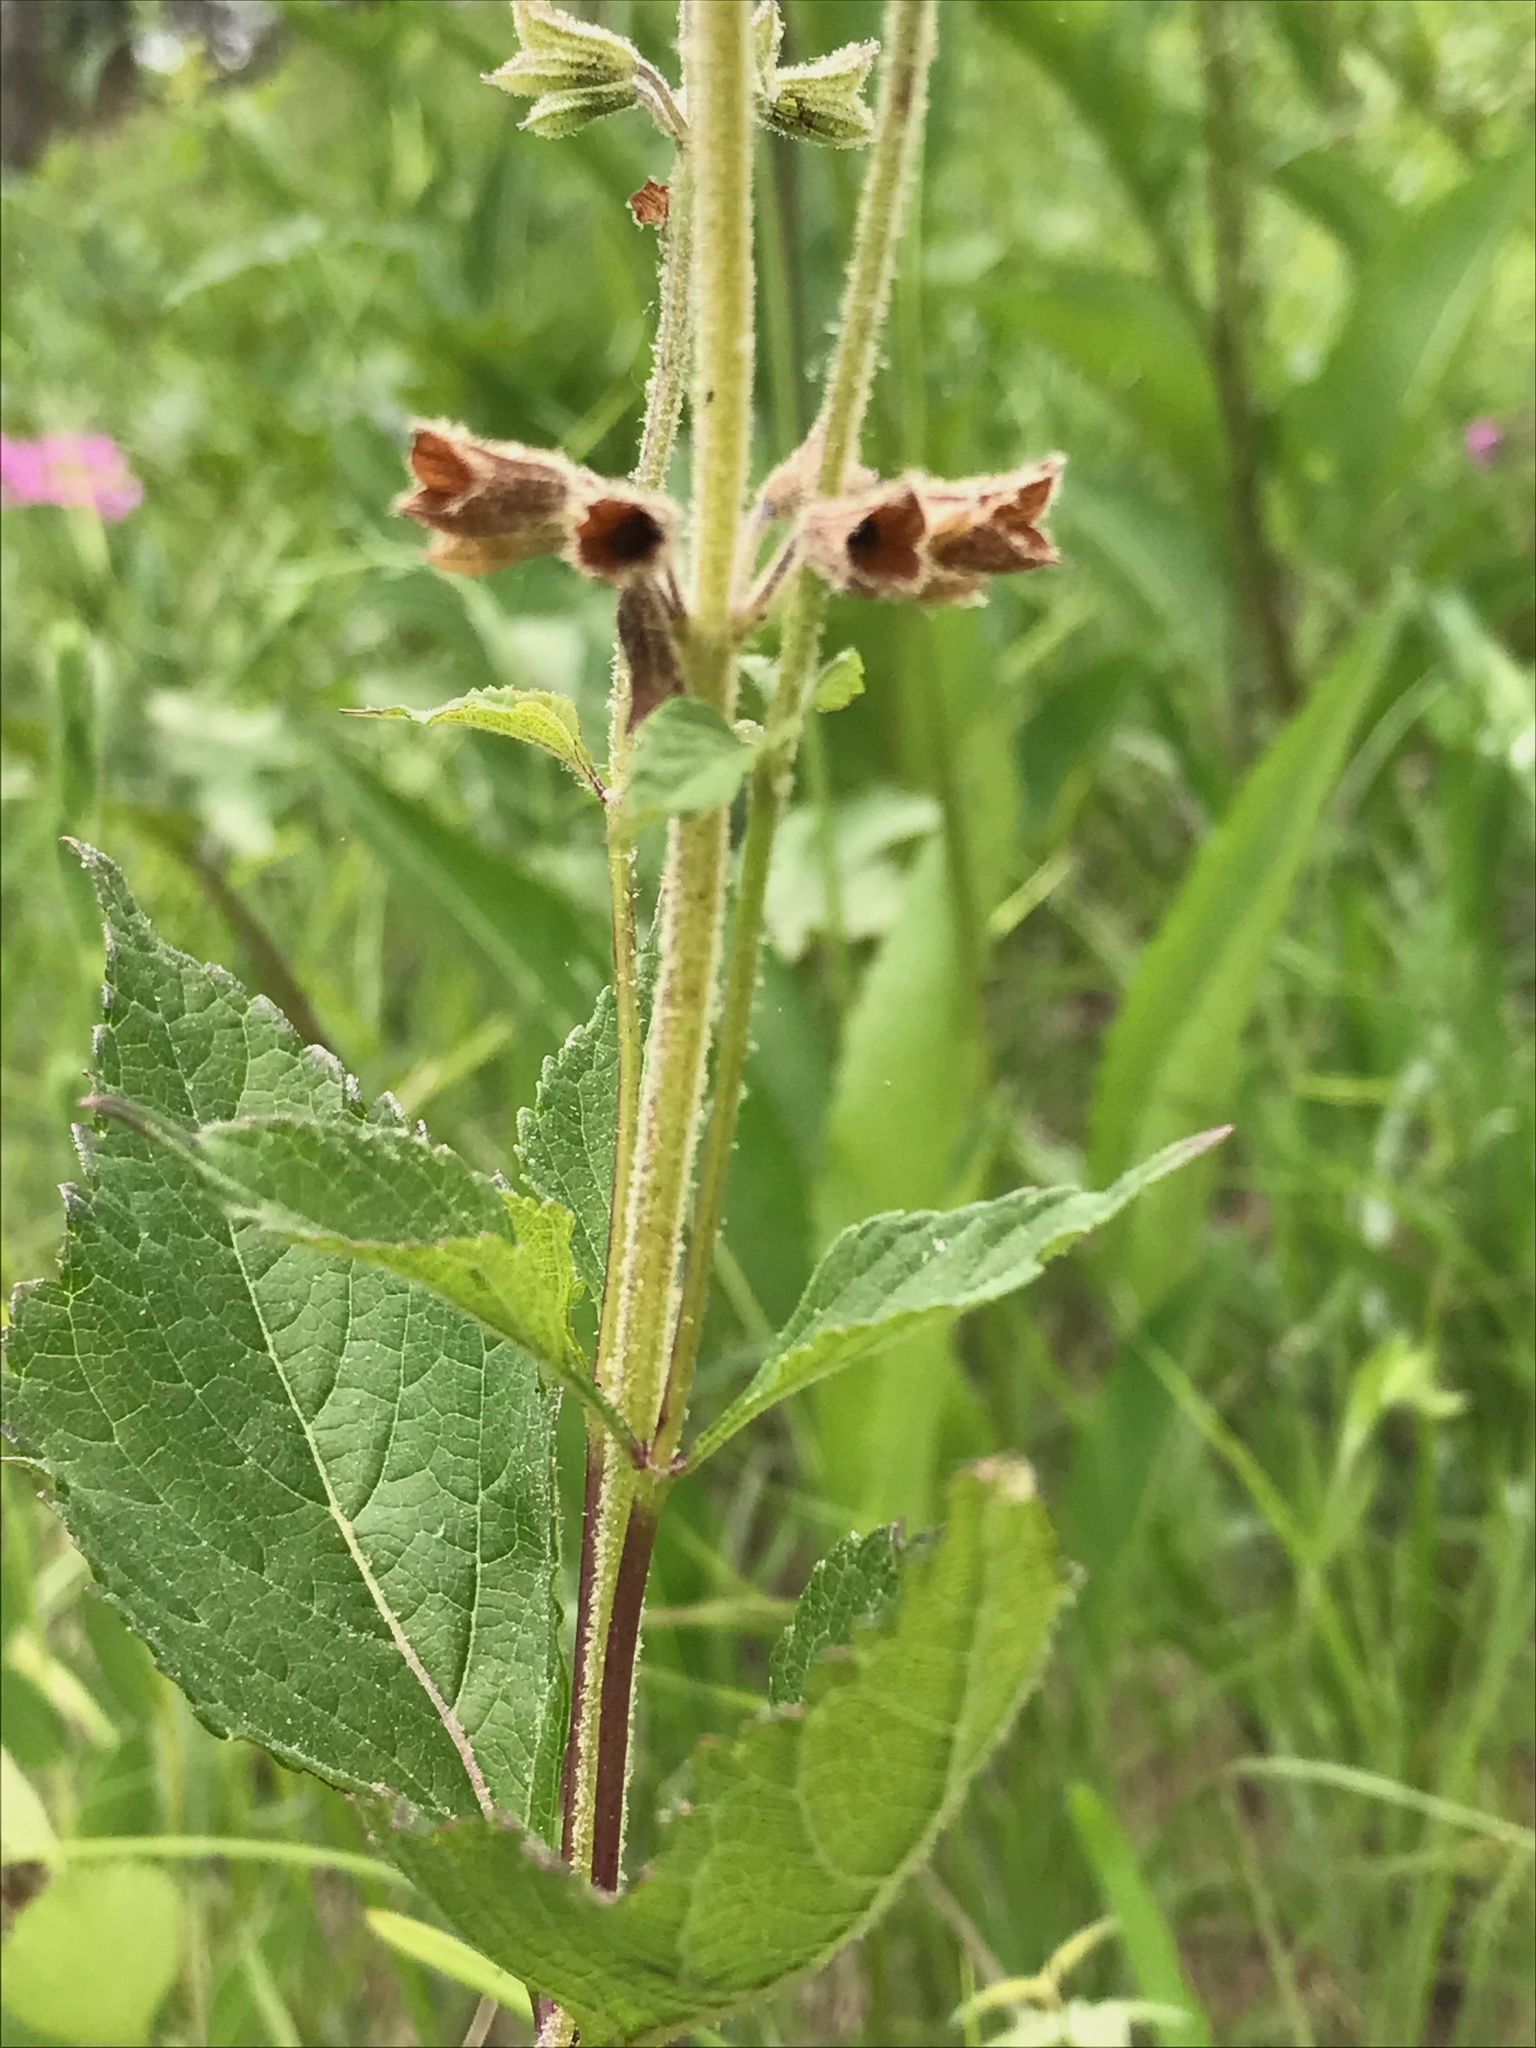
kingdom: Plantae
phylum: Tracheophyta
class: Magnoliopsida
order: Lamiales
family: Lamiaceae
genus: Salvia
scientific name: Salvia urticifolia
